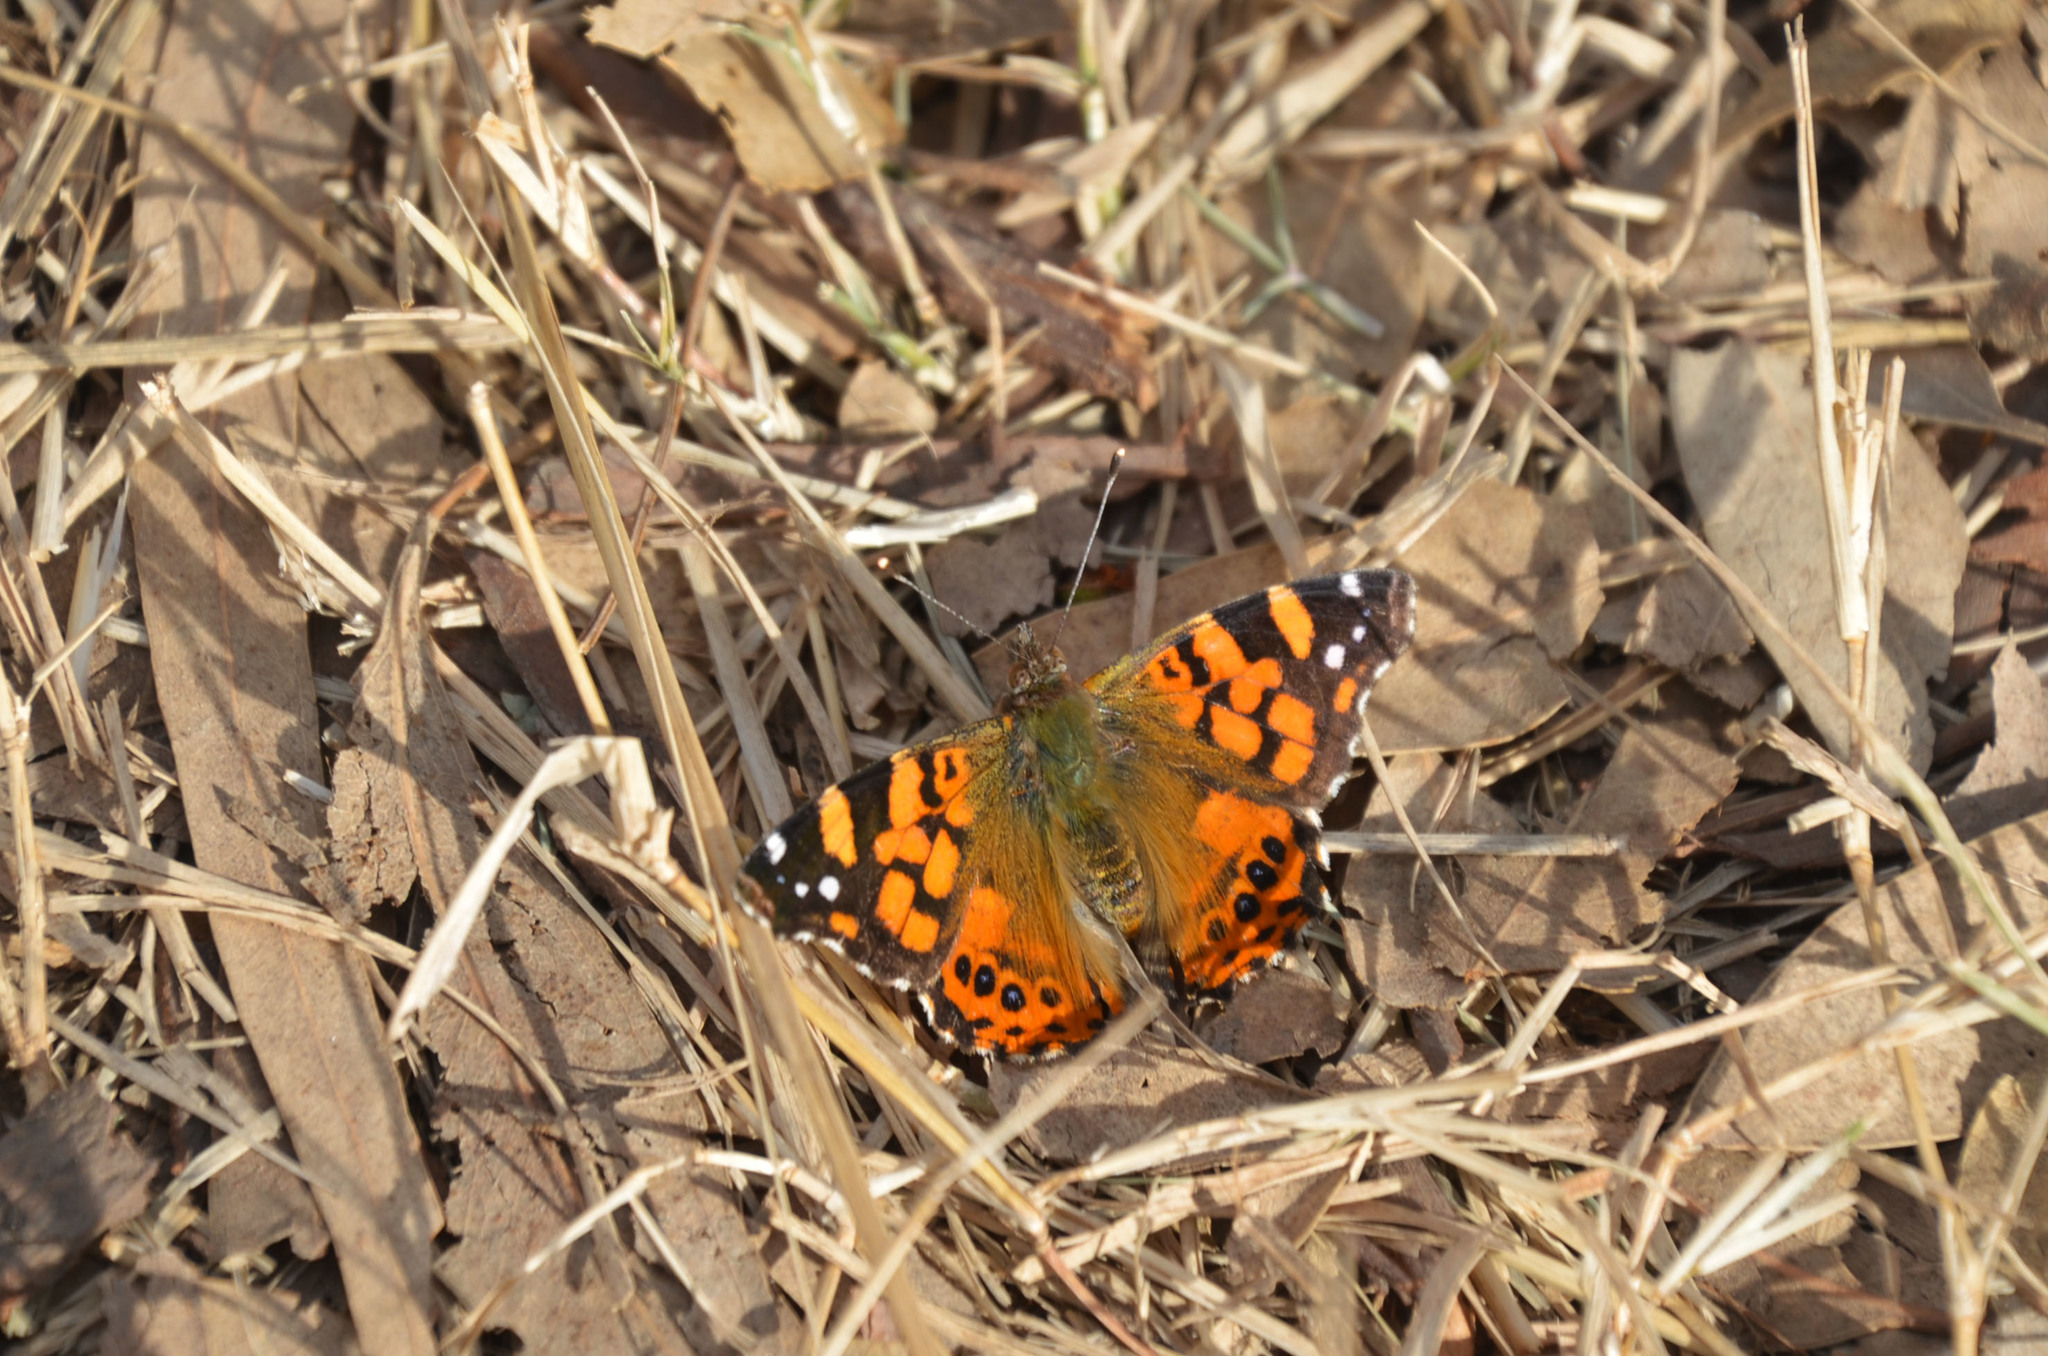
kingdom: Animalia
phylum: Arthropoda
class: Insecta
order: Lepidoptera
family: Nymphalidae
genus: Vanessa
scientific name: Vanessa carye
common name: Subtropical lady
